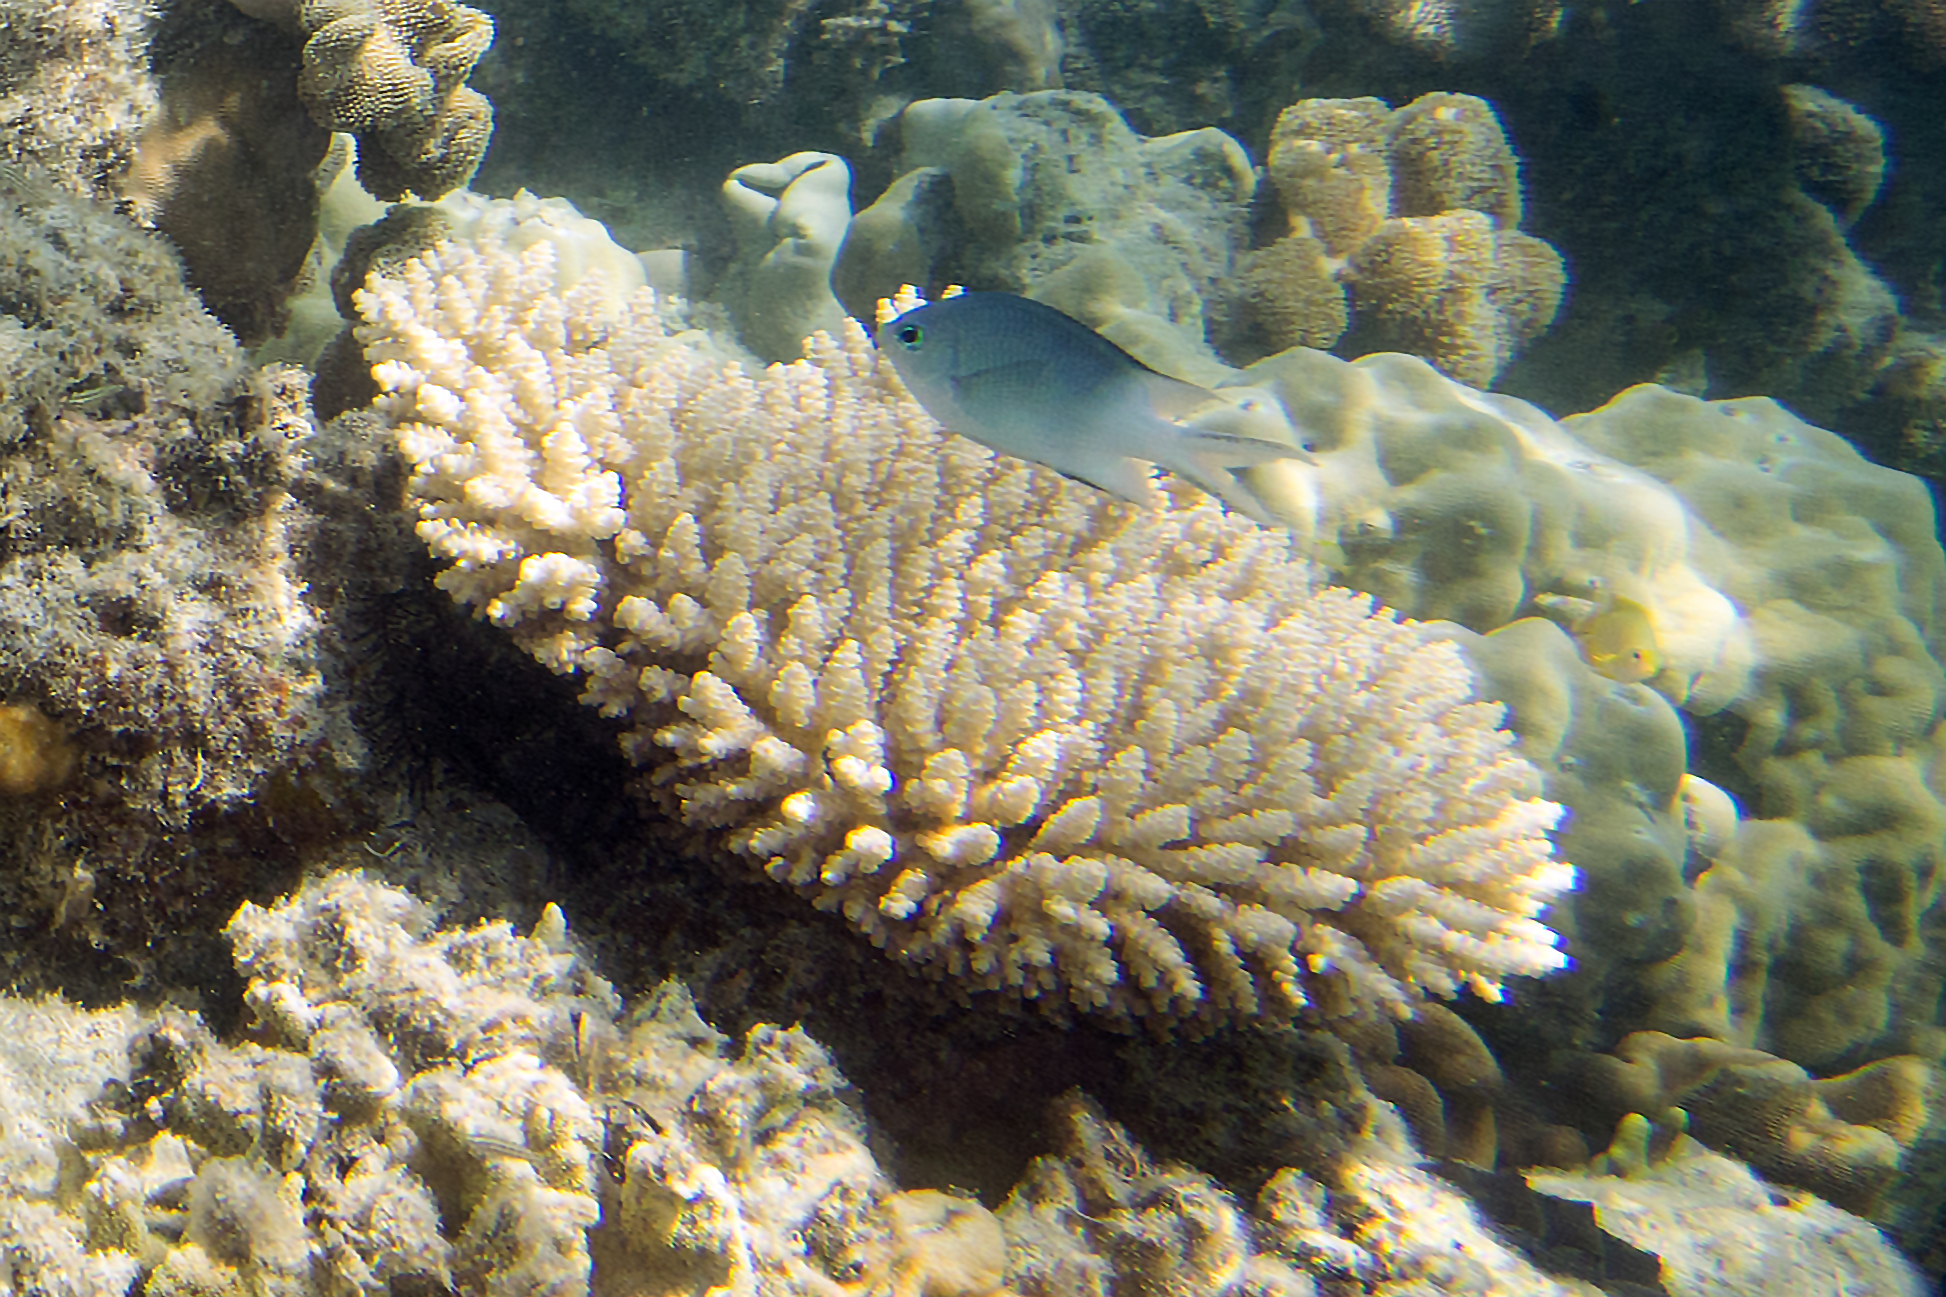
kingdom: Animalia
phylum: Cnidaria
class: Anthozoa
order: Scleractinia
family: Acroporidae
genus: Acropora
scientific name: Acropora tenuis
